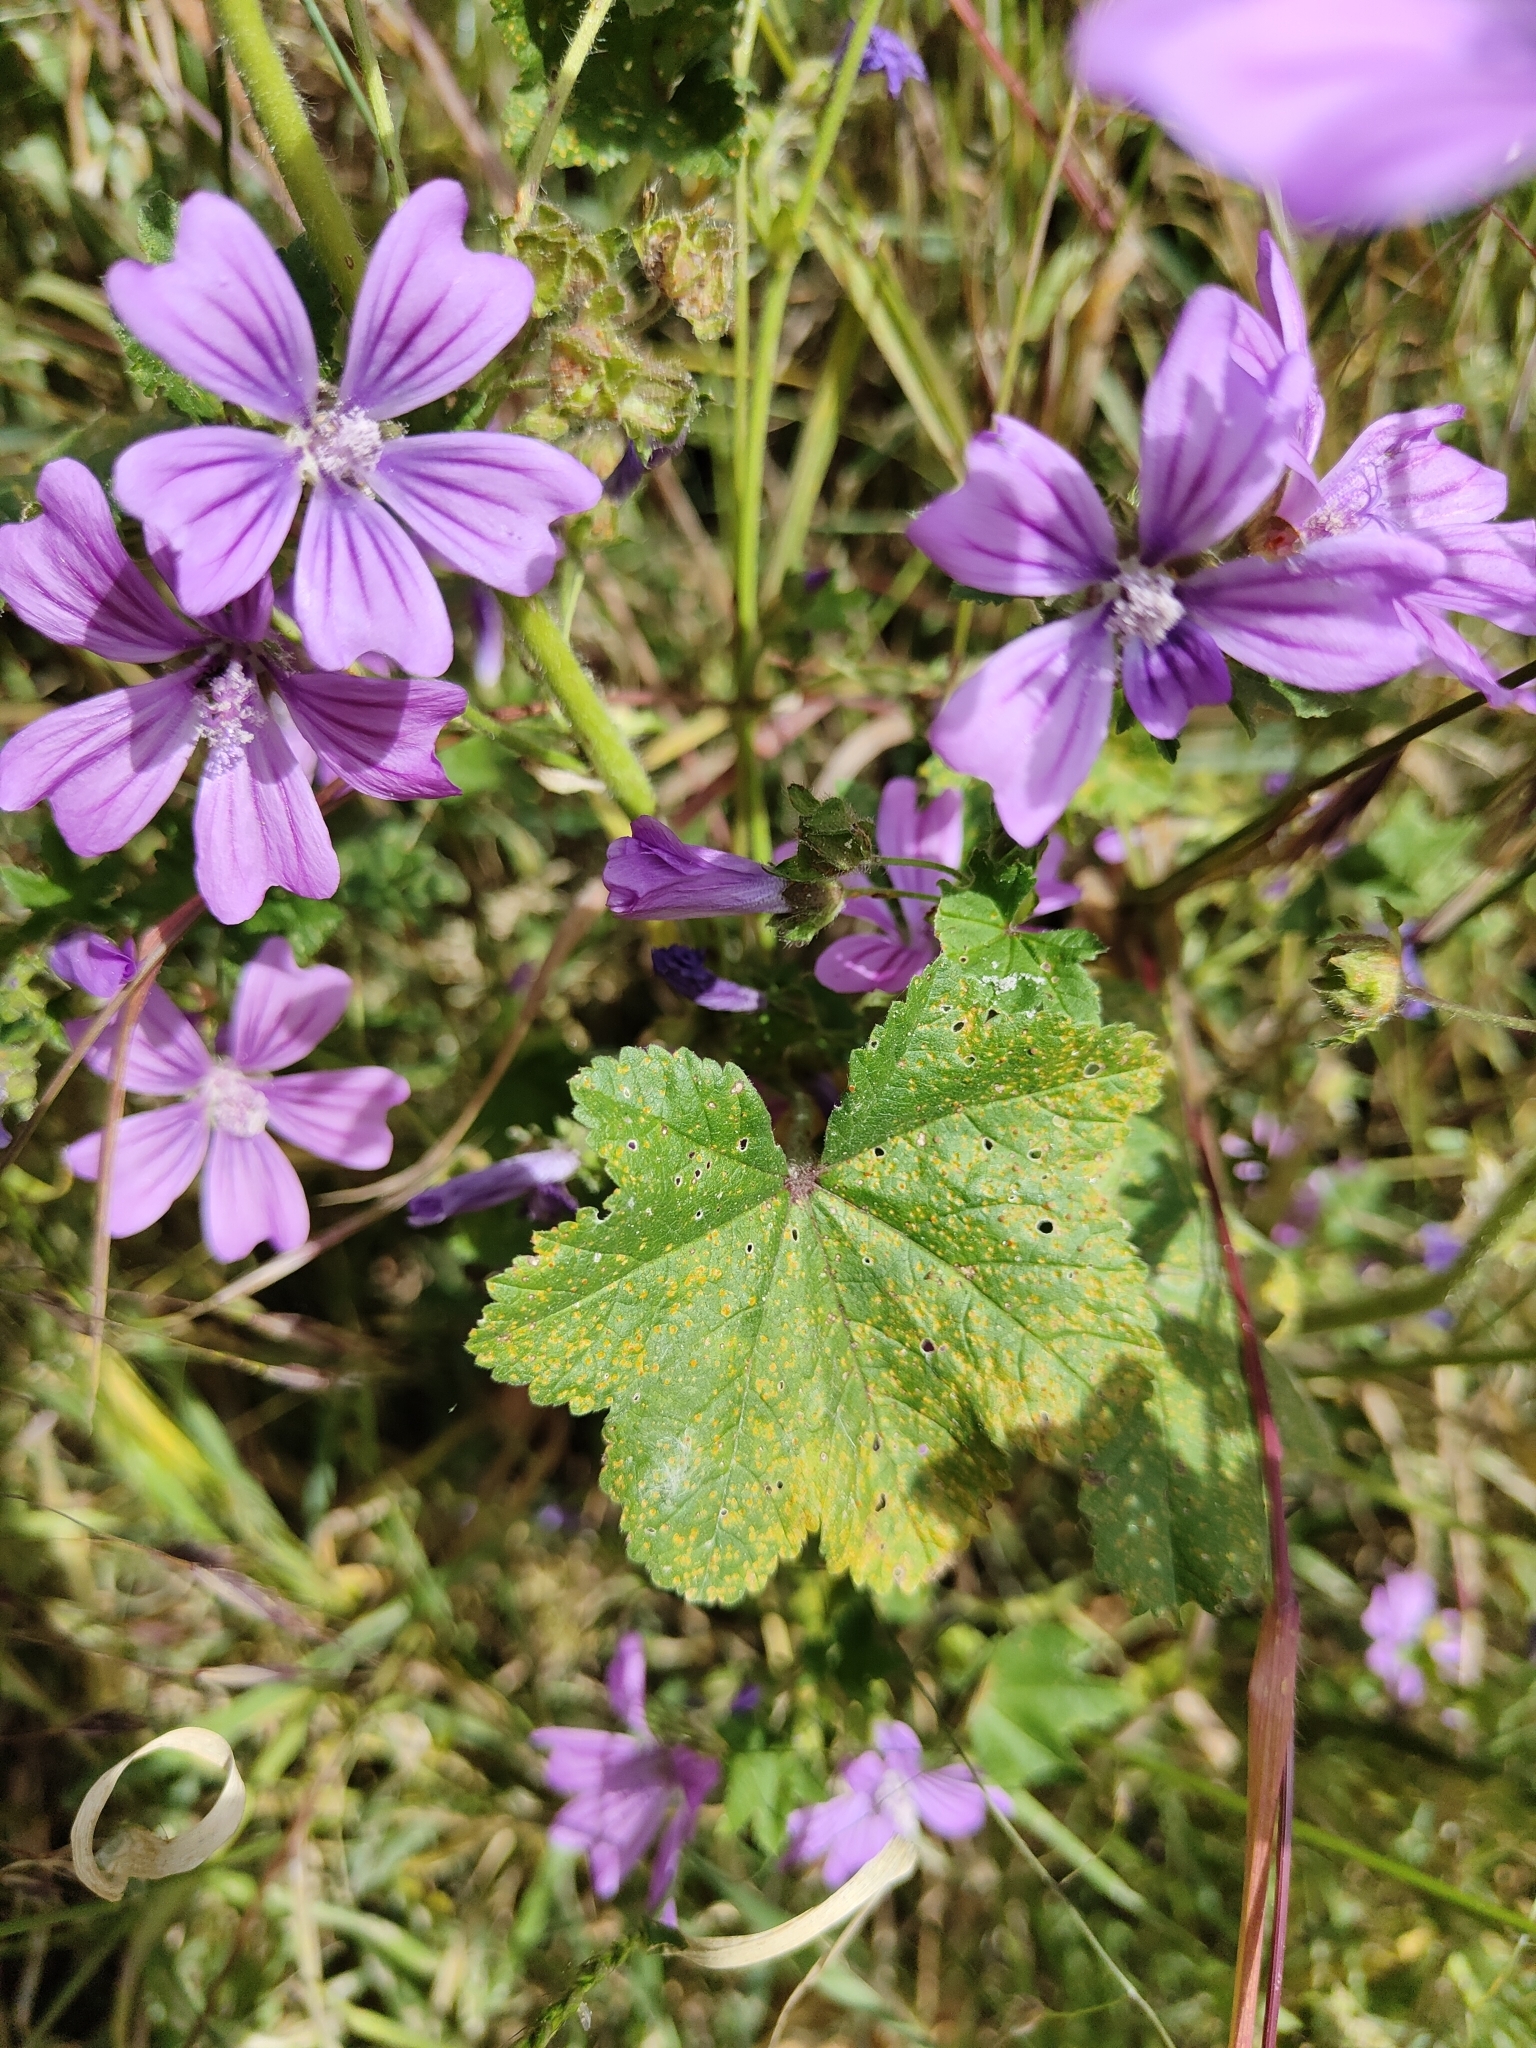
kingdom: Plantae
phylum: Tracheophyta
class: Magnoliopsida
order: Malvales
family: Malvaceae
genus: Malva
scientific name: Malva sylvestris
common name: Common mallow
